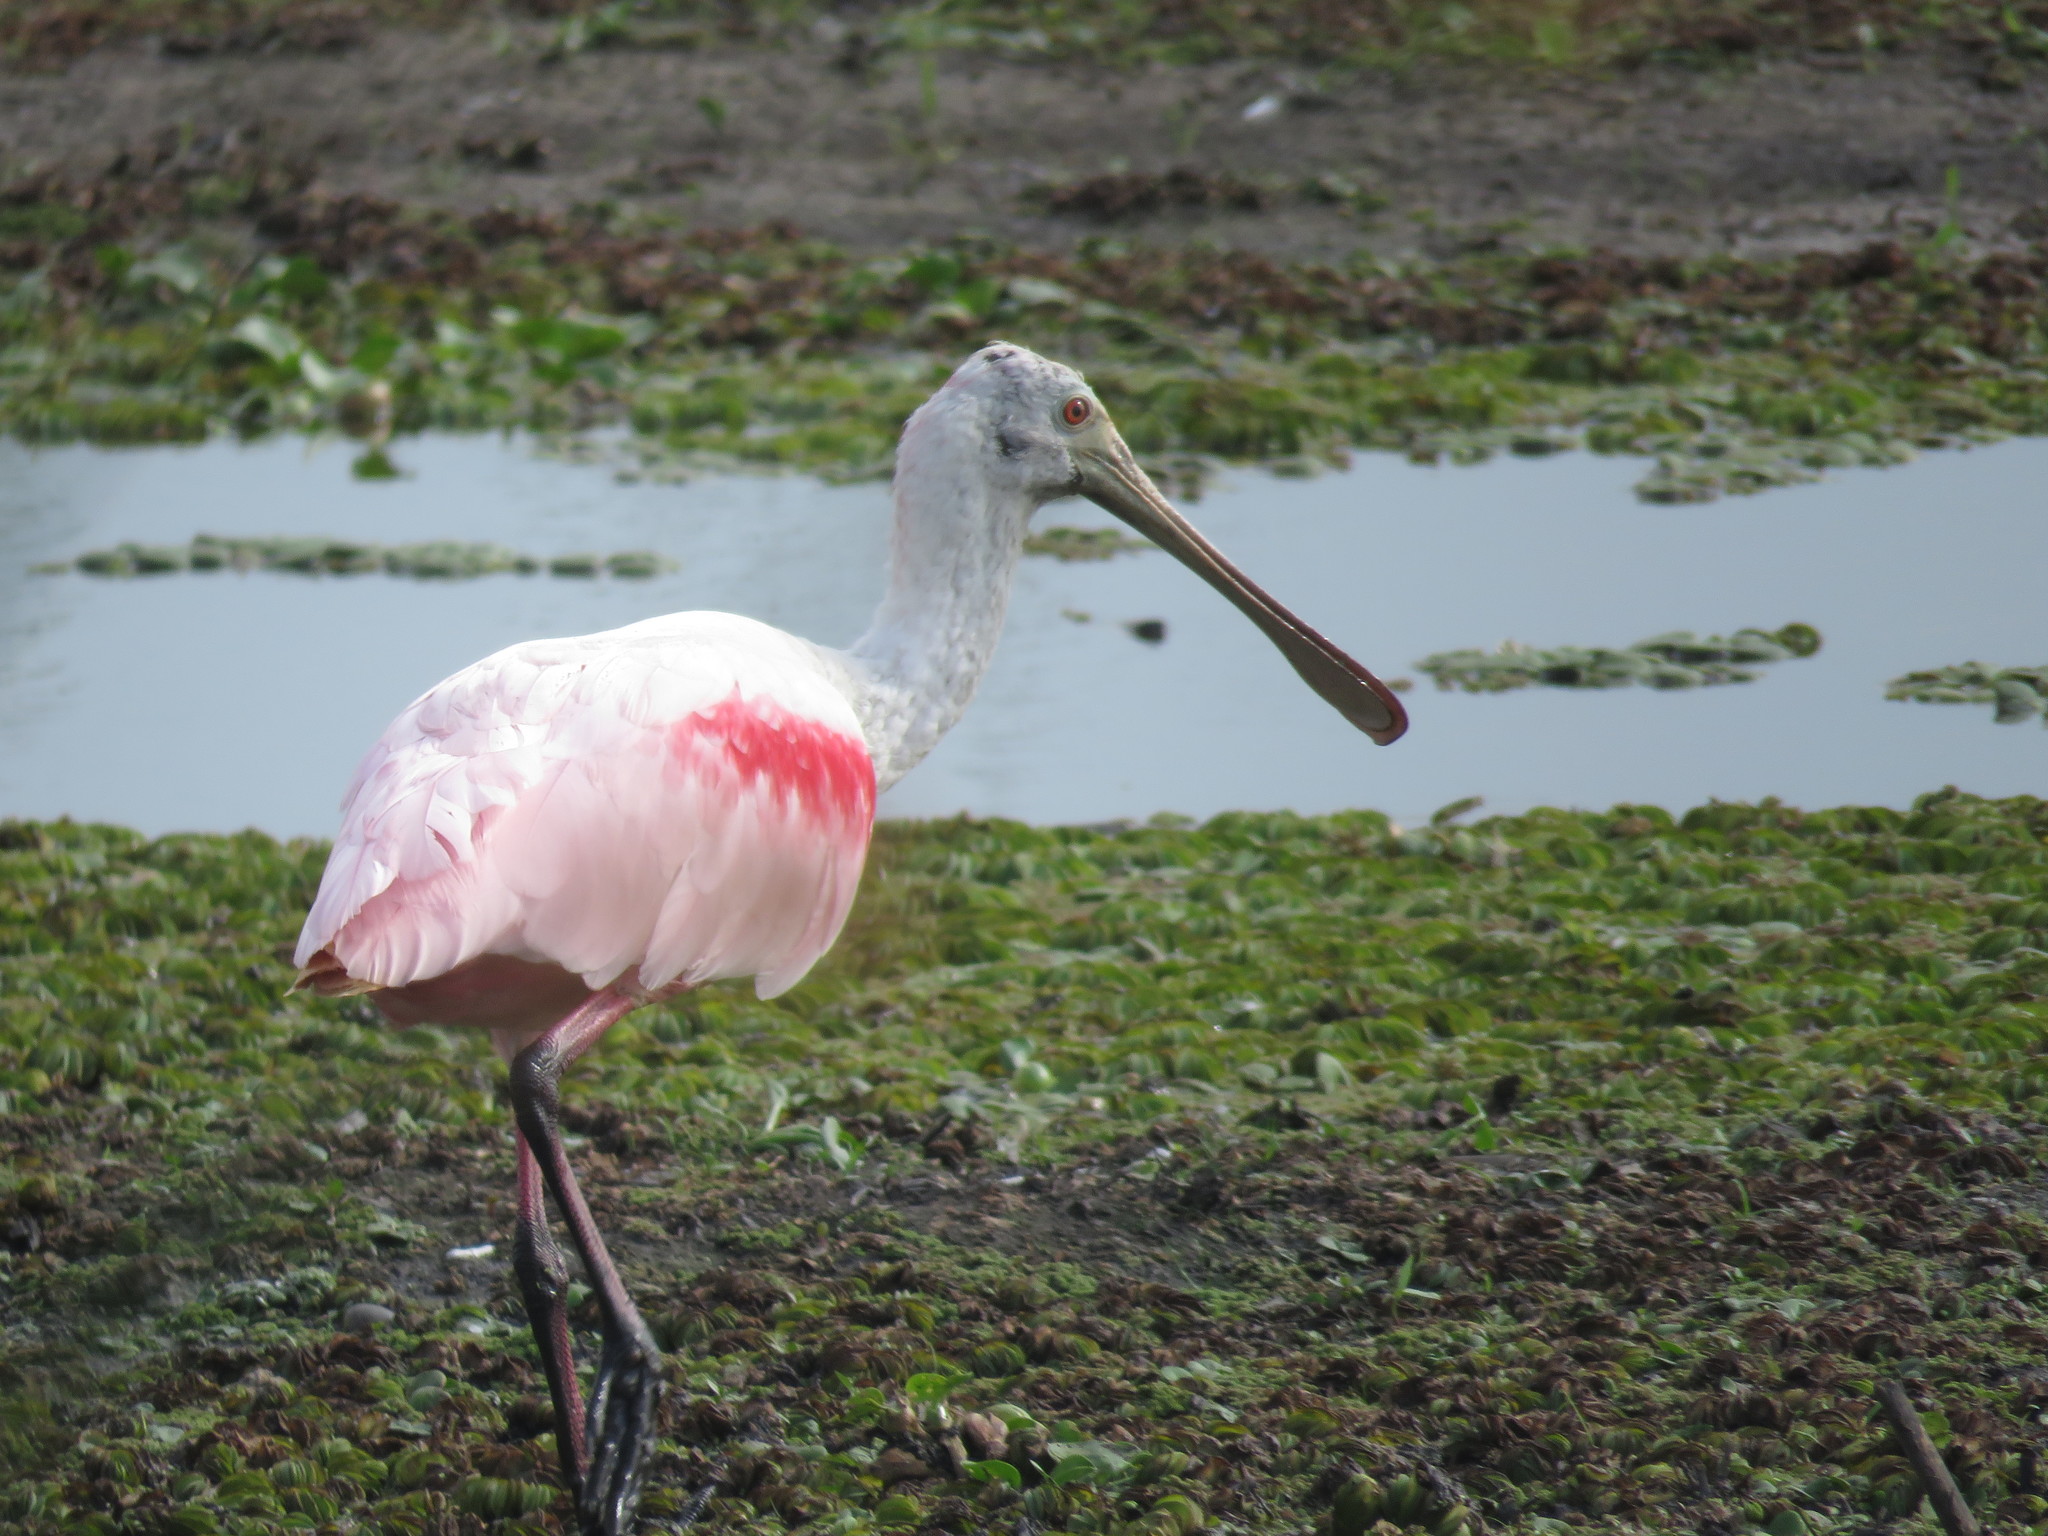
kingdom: Animalia
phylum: Chordata
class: Aves
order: Pelecaniformes
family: Threskiornithidae
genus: Platalea
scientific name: Platalea ajaja
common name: Roseate spoonbill
